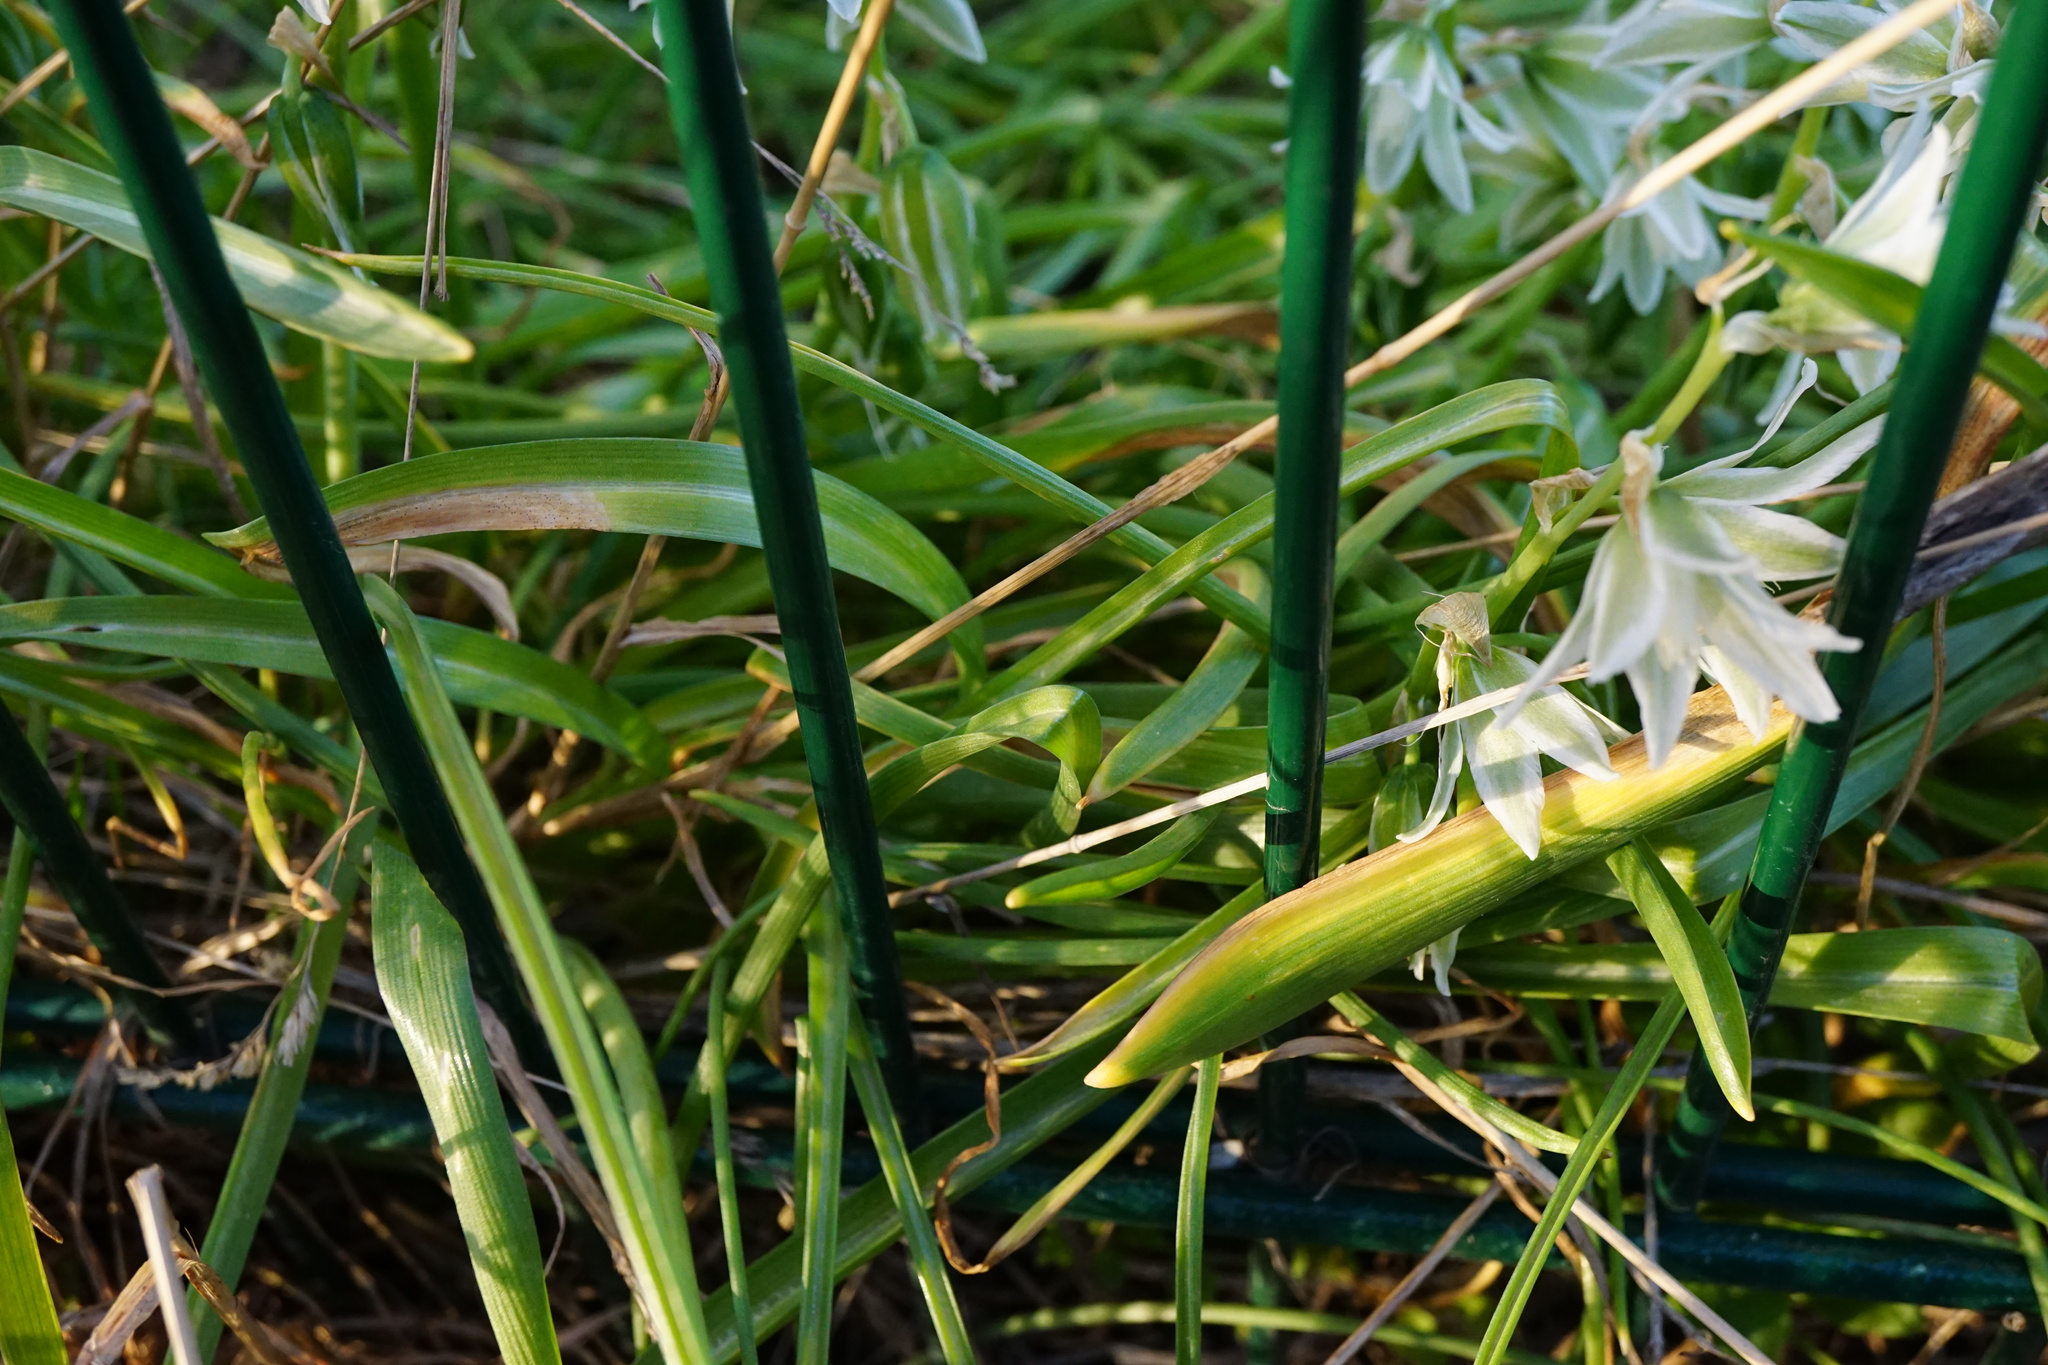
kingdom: Plantae
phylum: Tracheophyta
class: Liliopsida
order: Asparagales
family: Asparagaceae
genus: Ornithogalum
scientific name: Ornithogalum boucheanum
